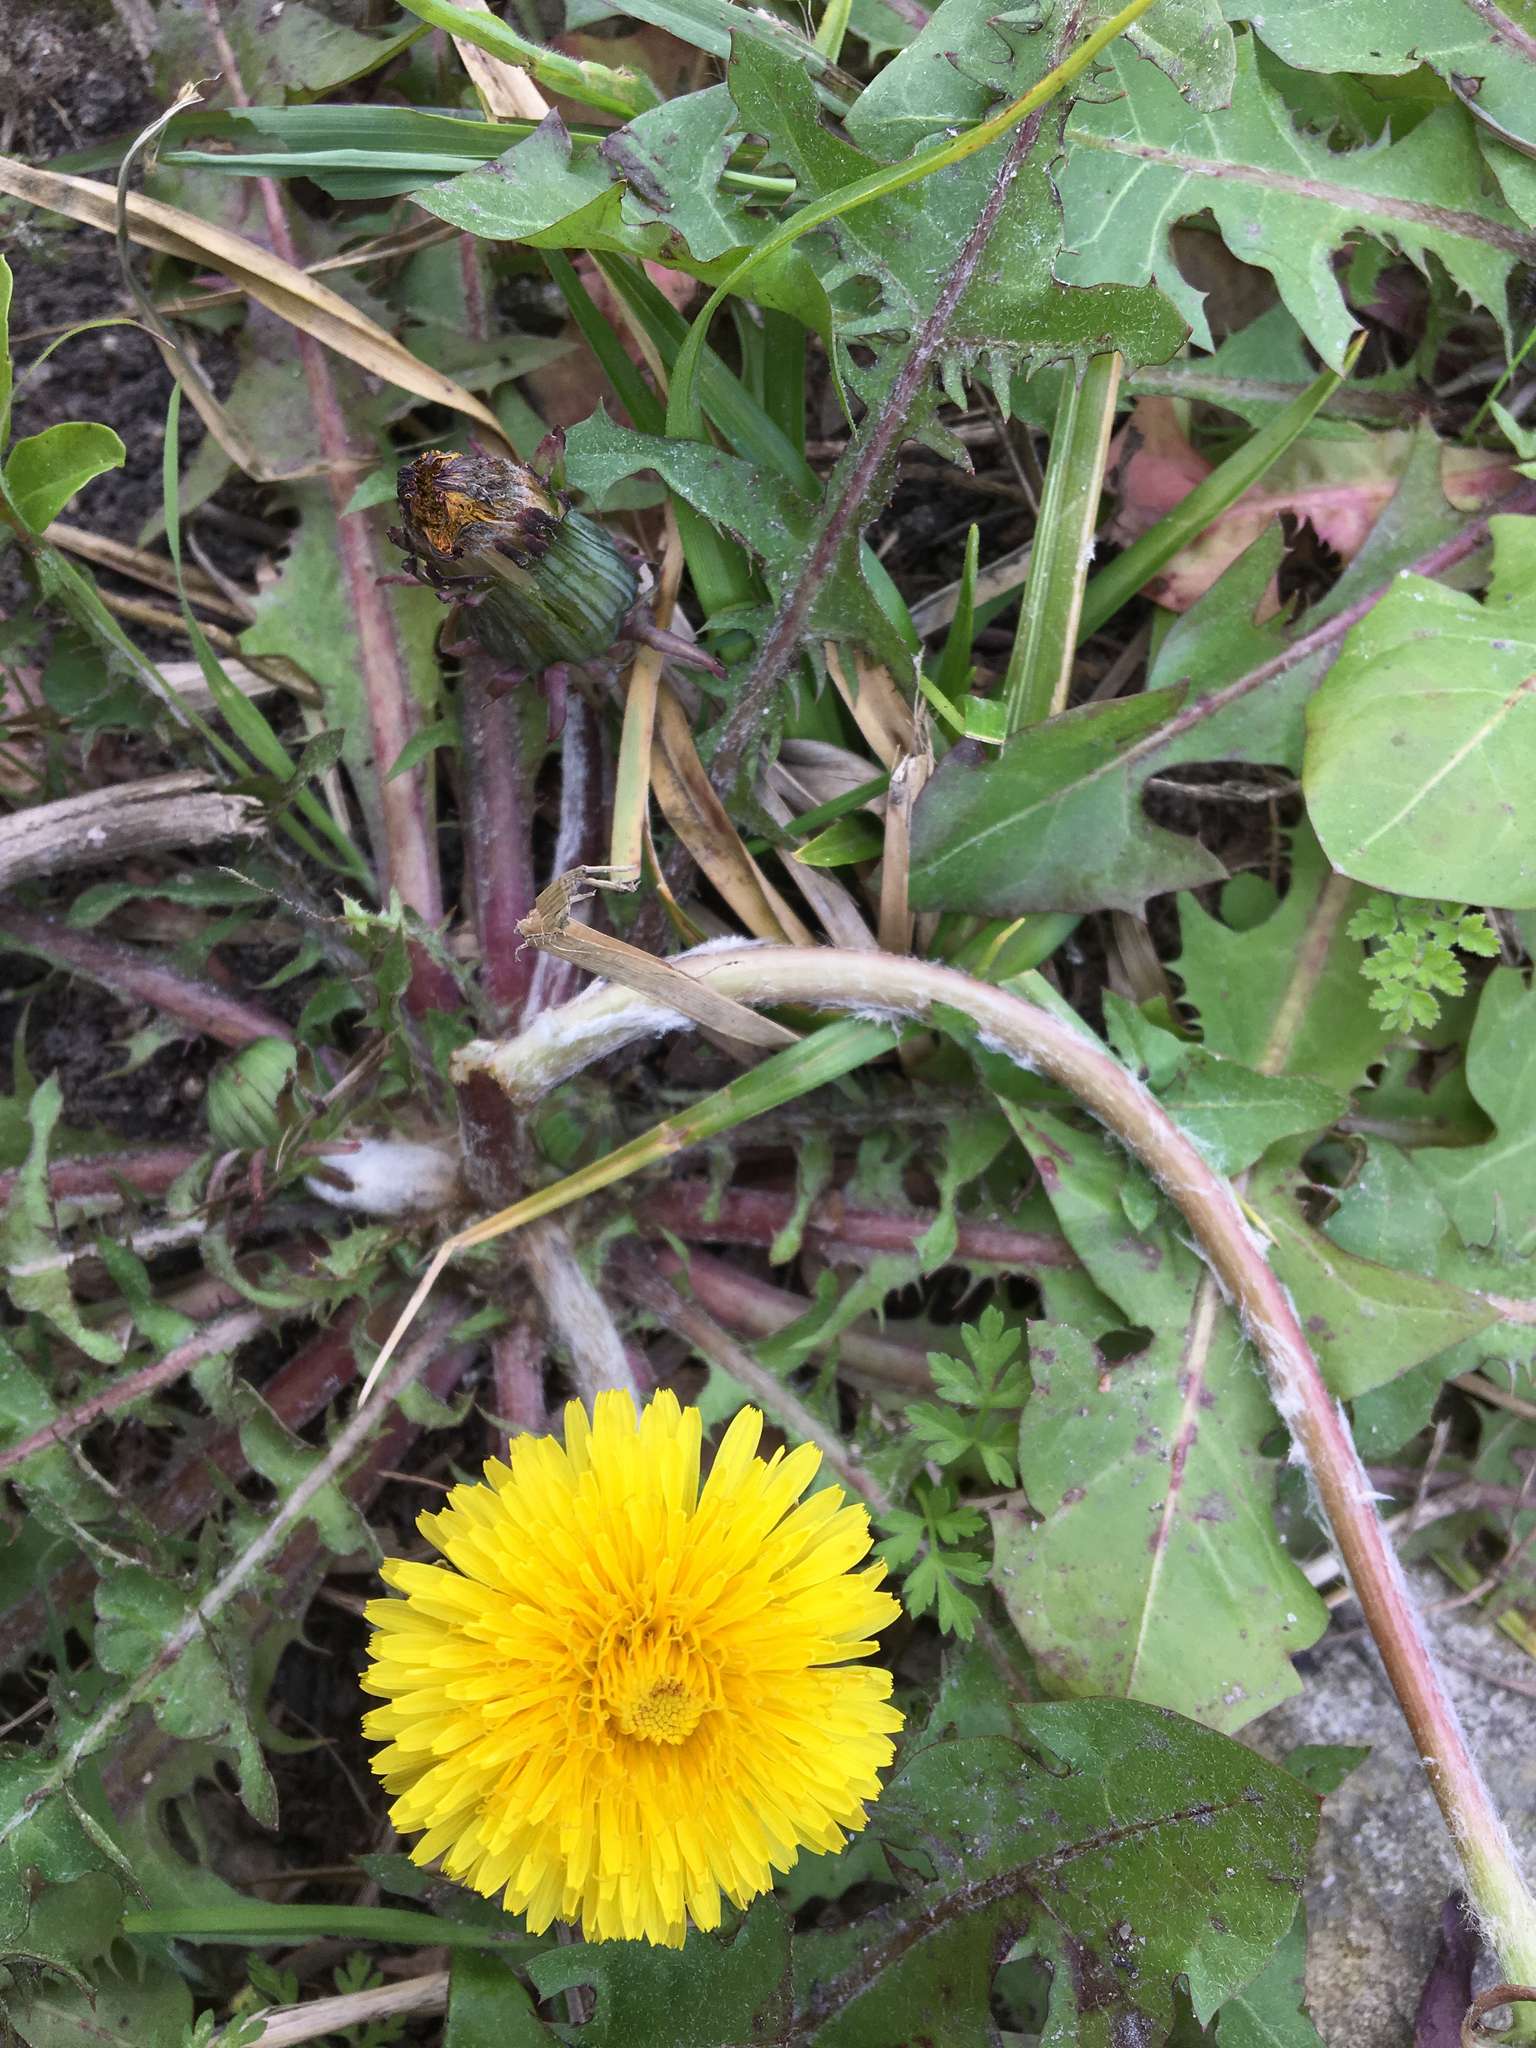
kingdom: Plantae
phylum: Tracheophyta
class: Magnoliopsida
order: Asterales
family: Asteraceae
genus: Taraxacum
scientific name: Taraxacum officinale
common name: Common dandelion
